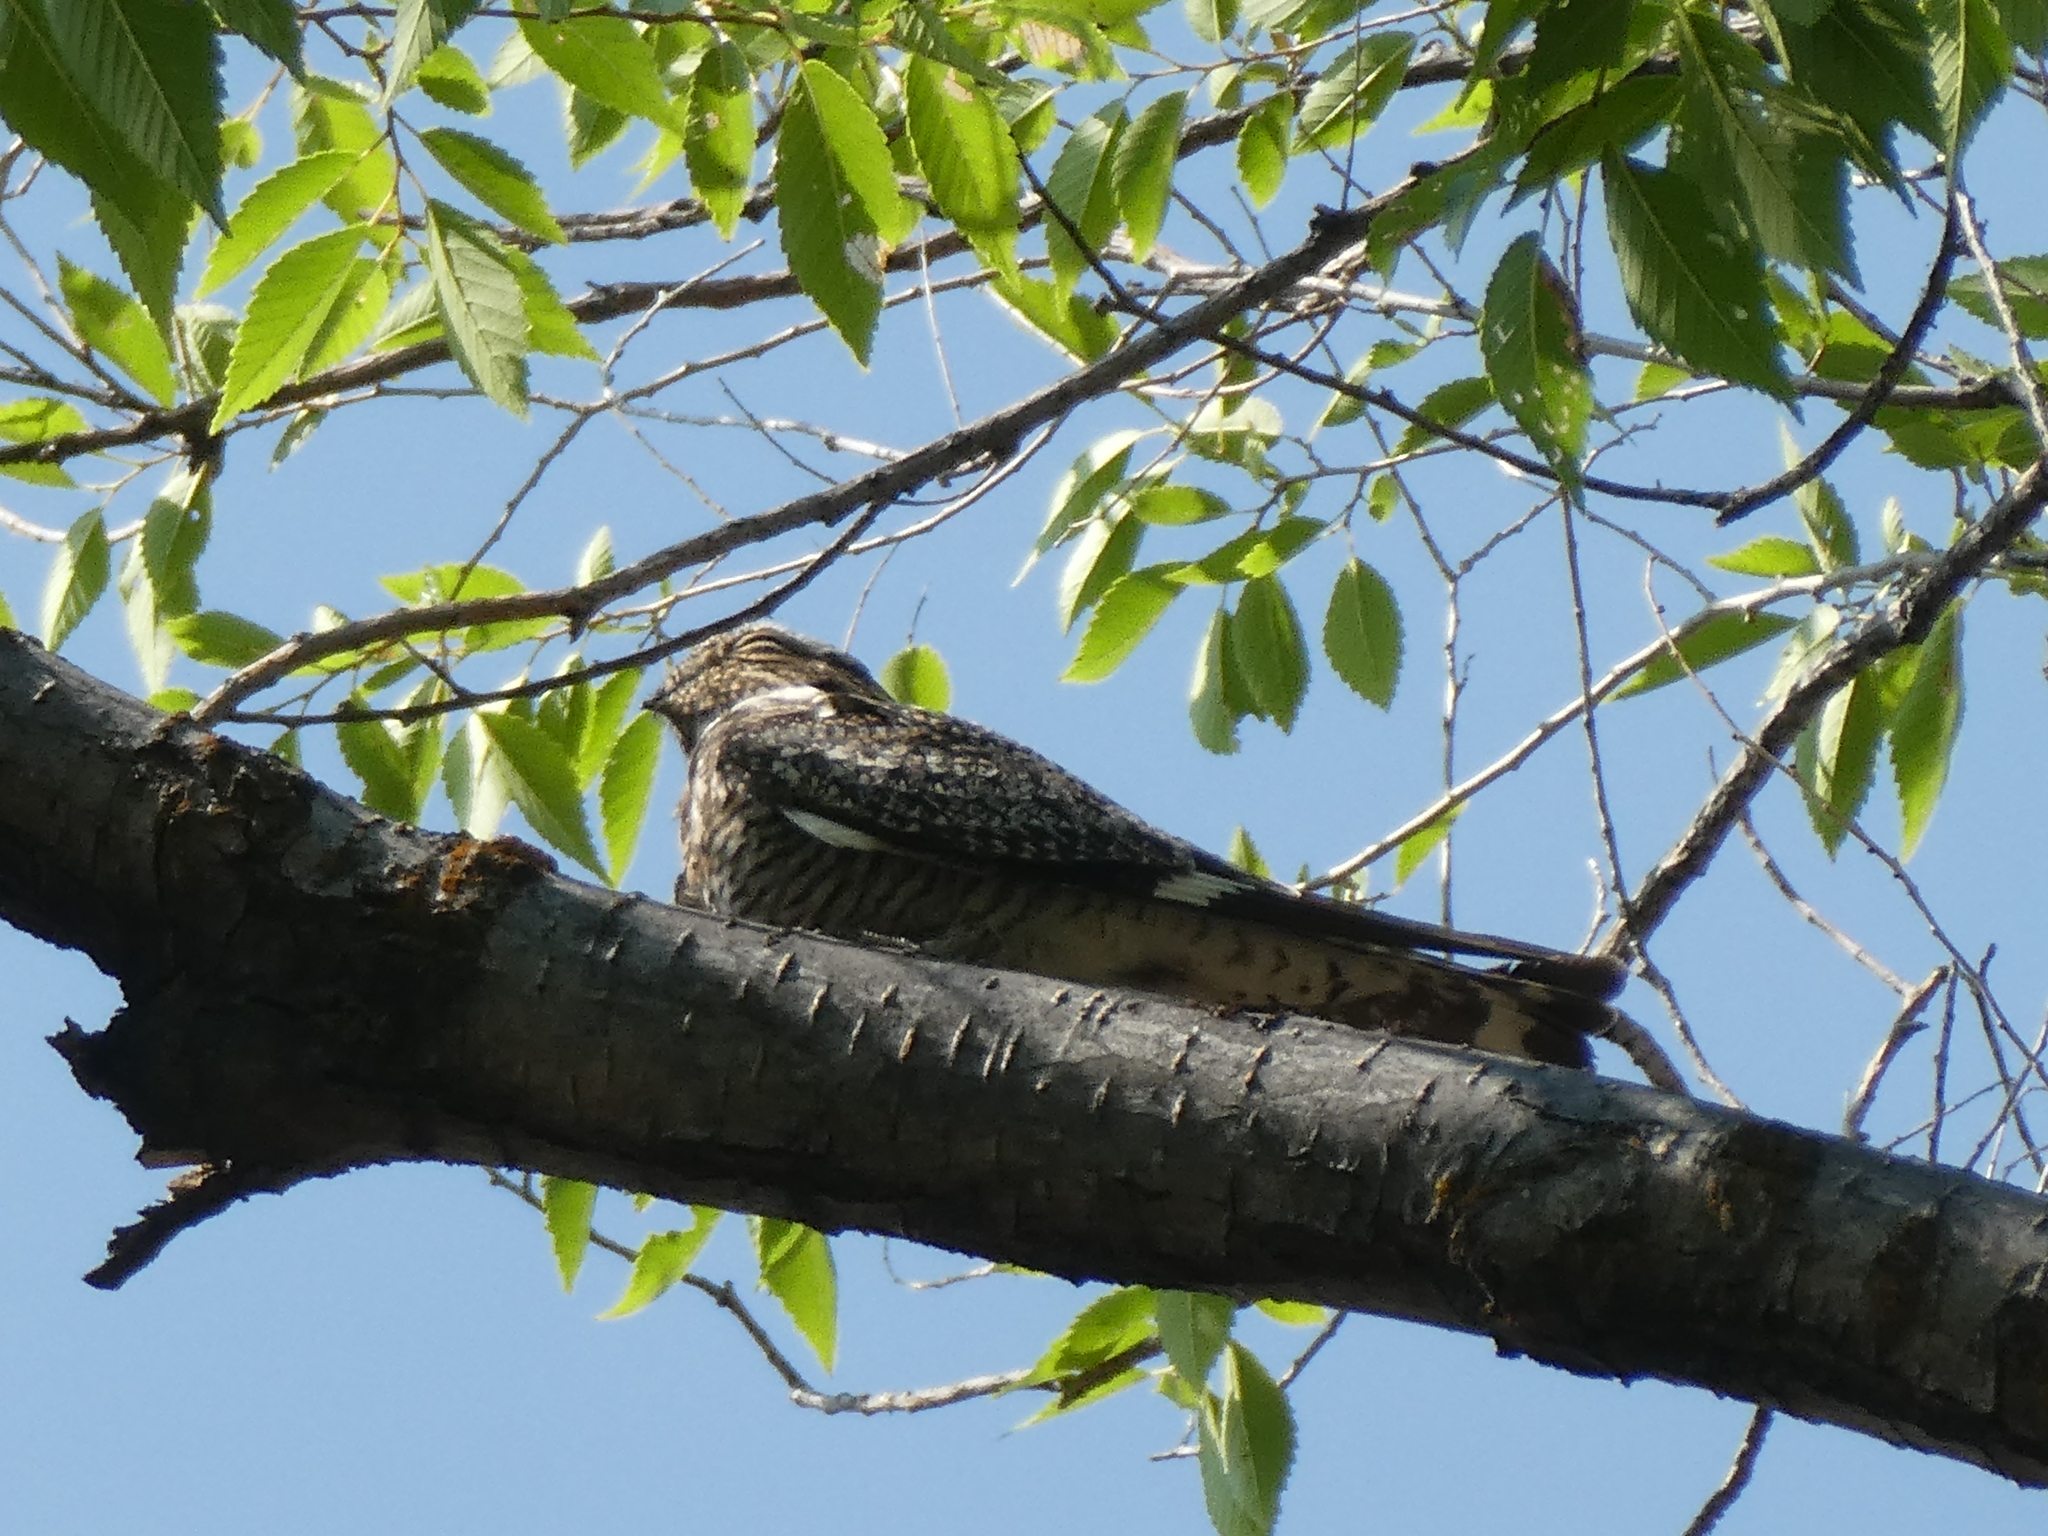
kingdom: Animalia
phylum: Chordata
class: Aves
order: Caprimulgiformes
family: Caprimulgidae
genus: Chordeiles
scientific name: Chordeiles minor
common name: Common nighthawk
